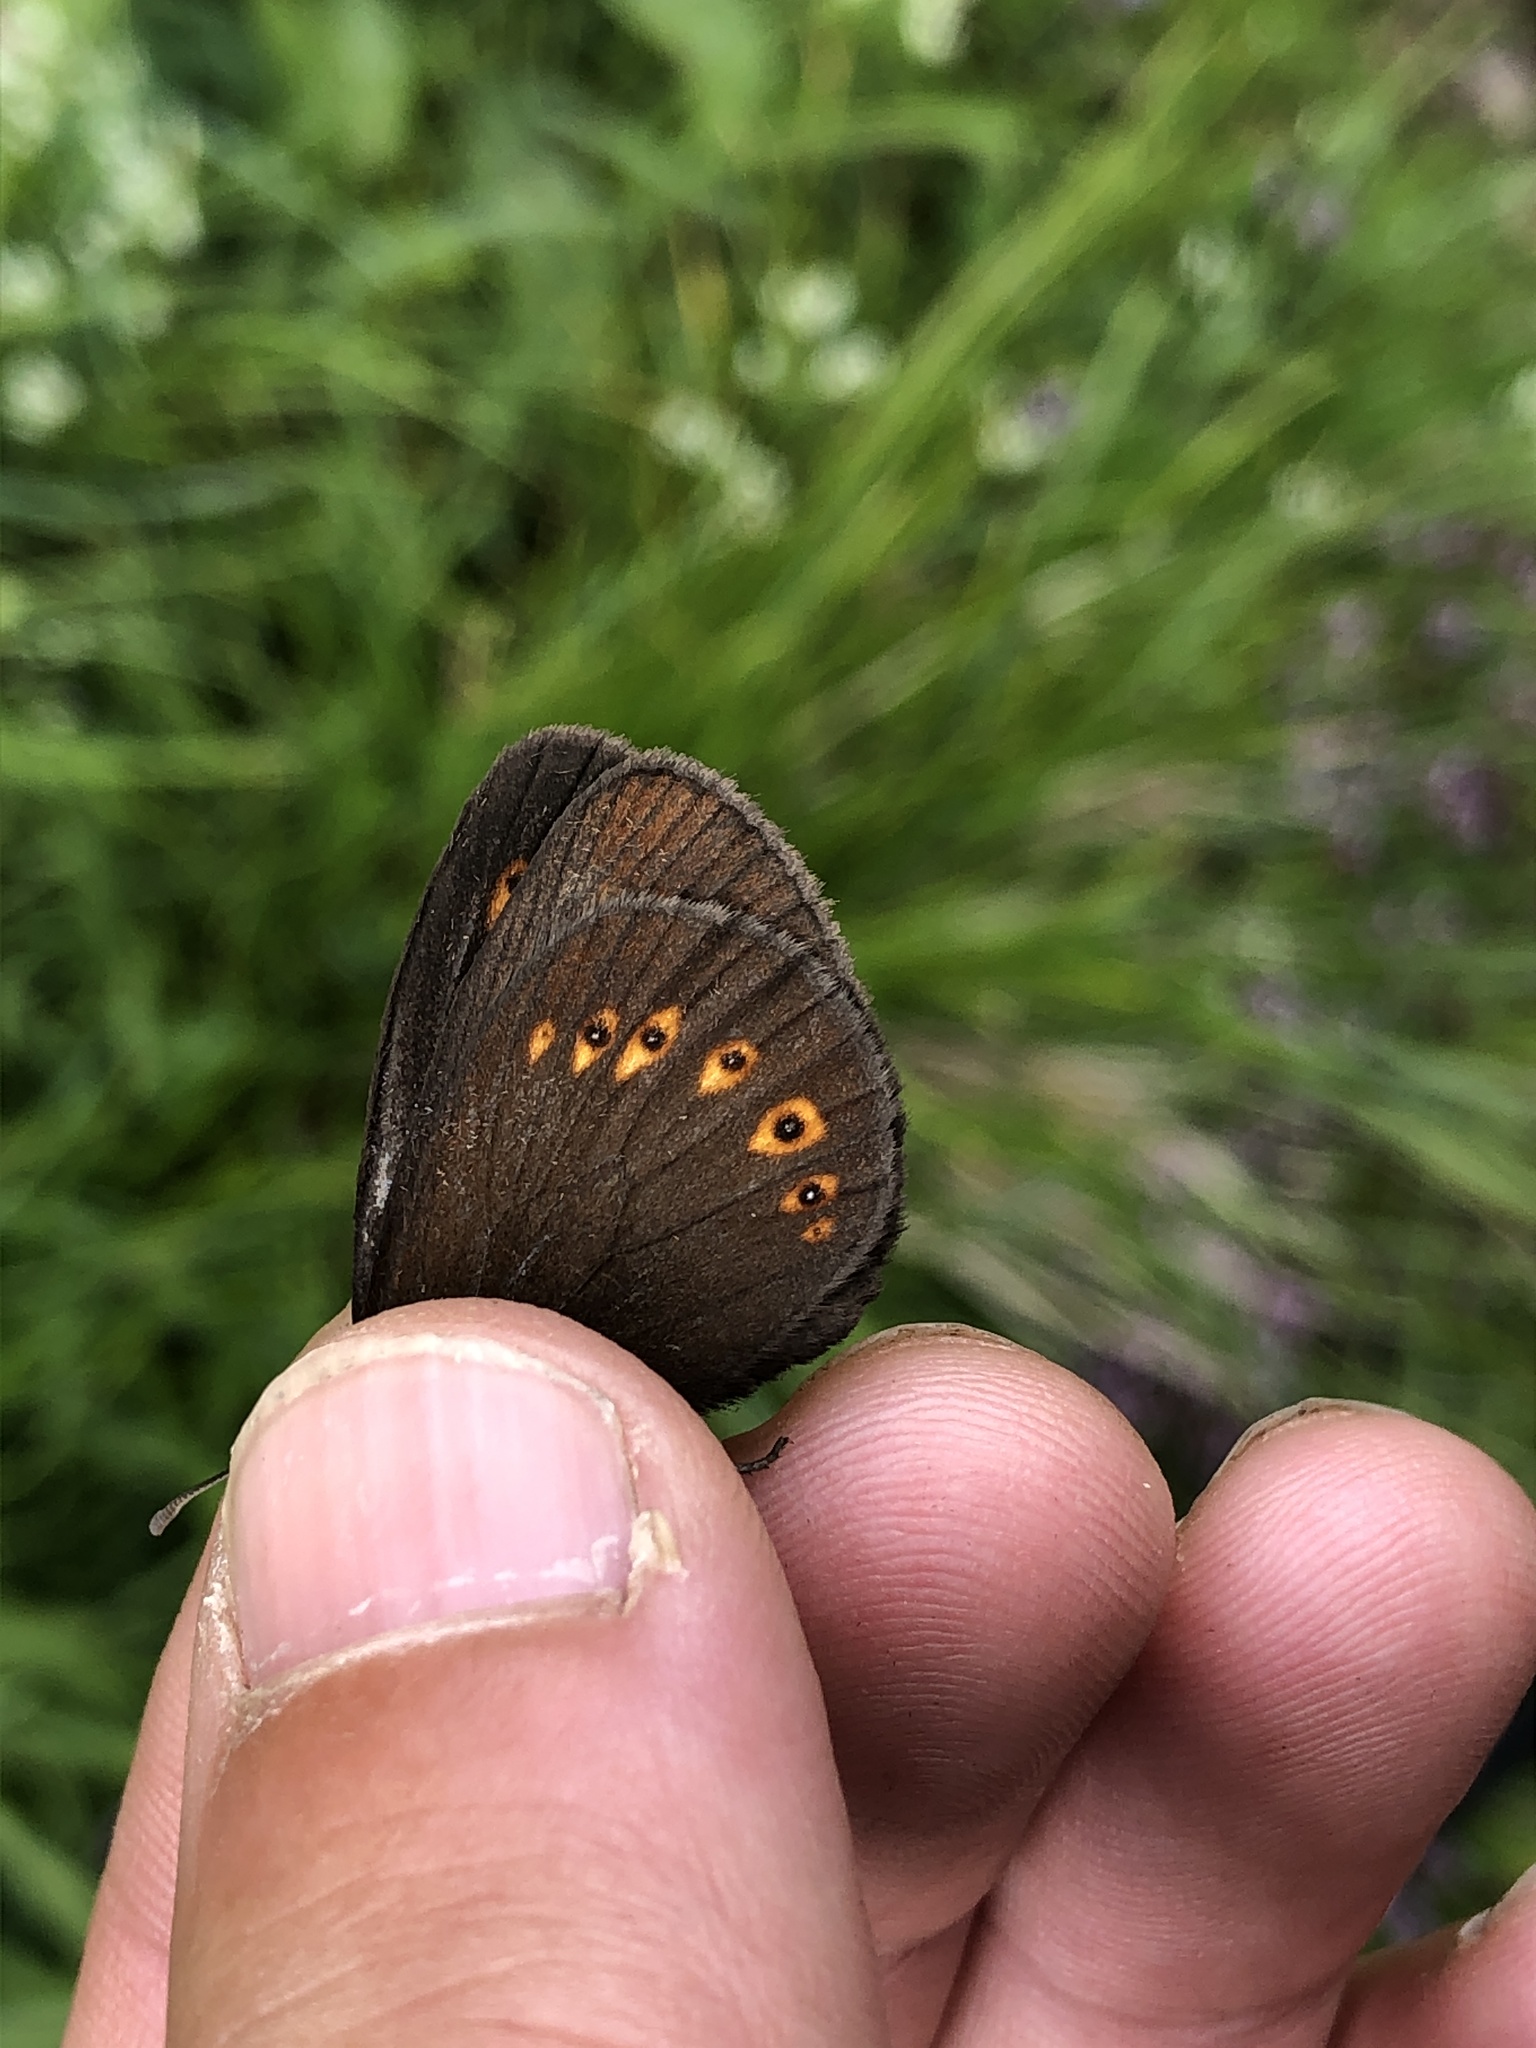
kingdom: Animalia
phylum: Arthropoda
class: Insecta
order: Lepidoptera
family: Nymphalidae
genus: Erebia
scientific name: Erebia alberganus
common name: Almond-eyed ringlet
